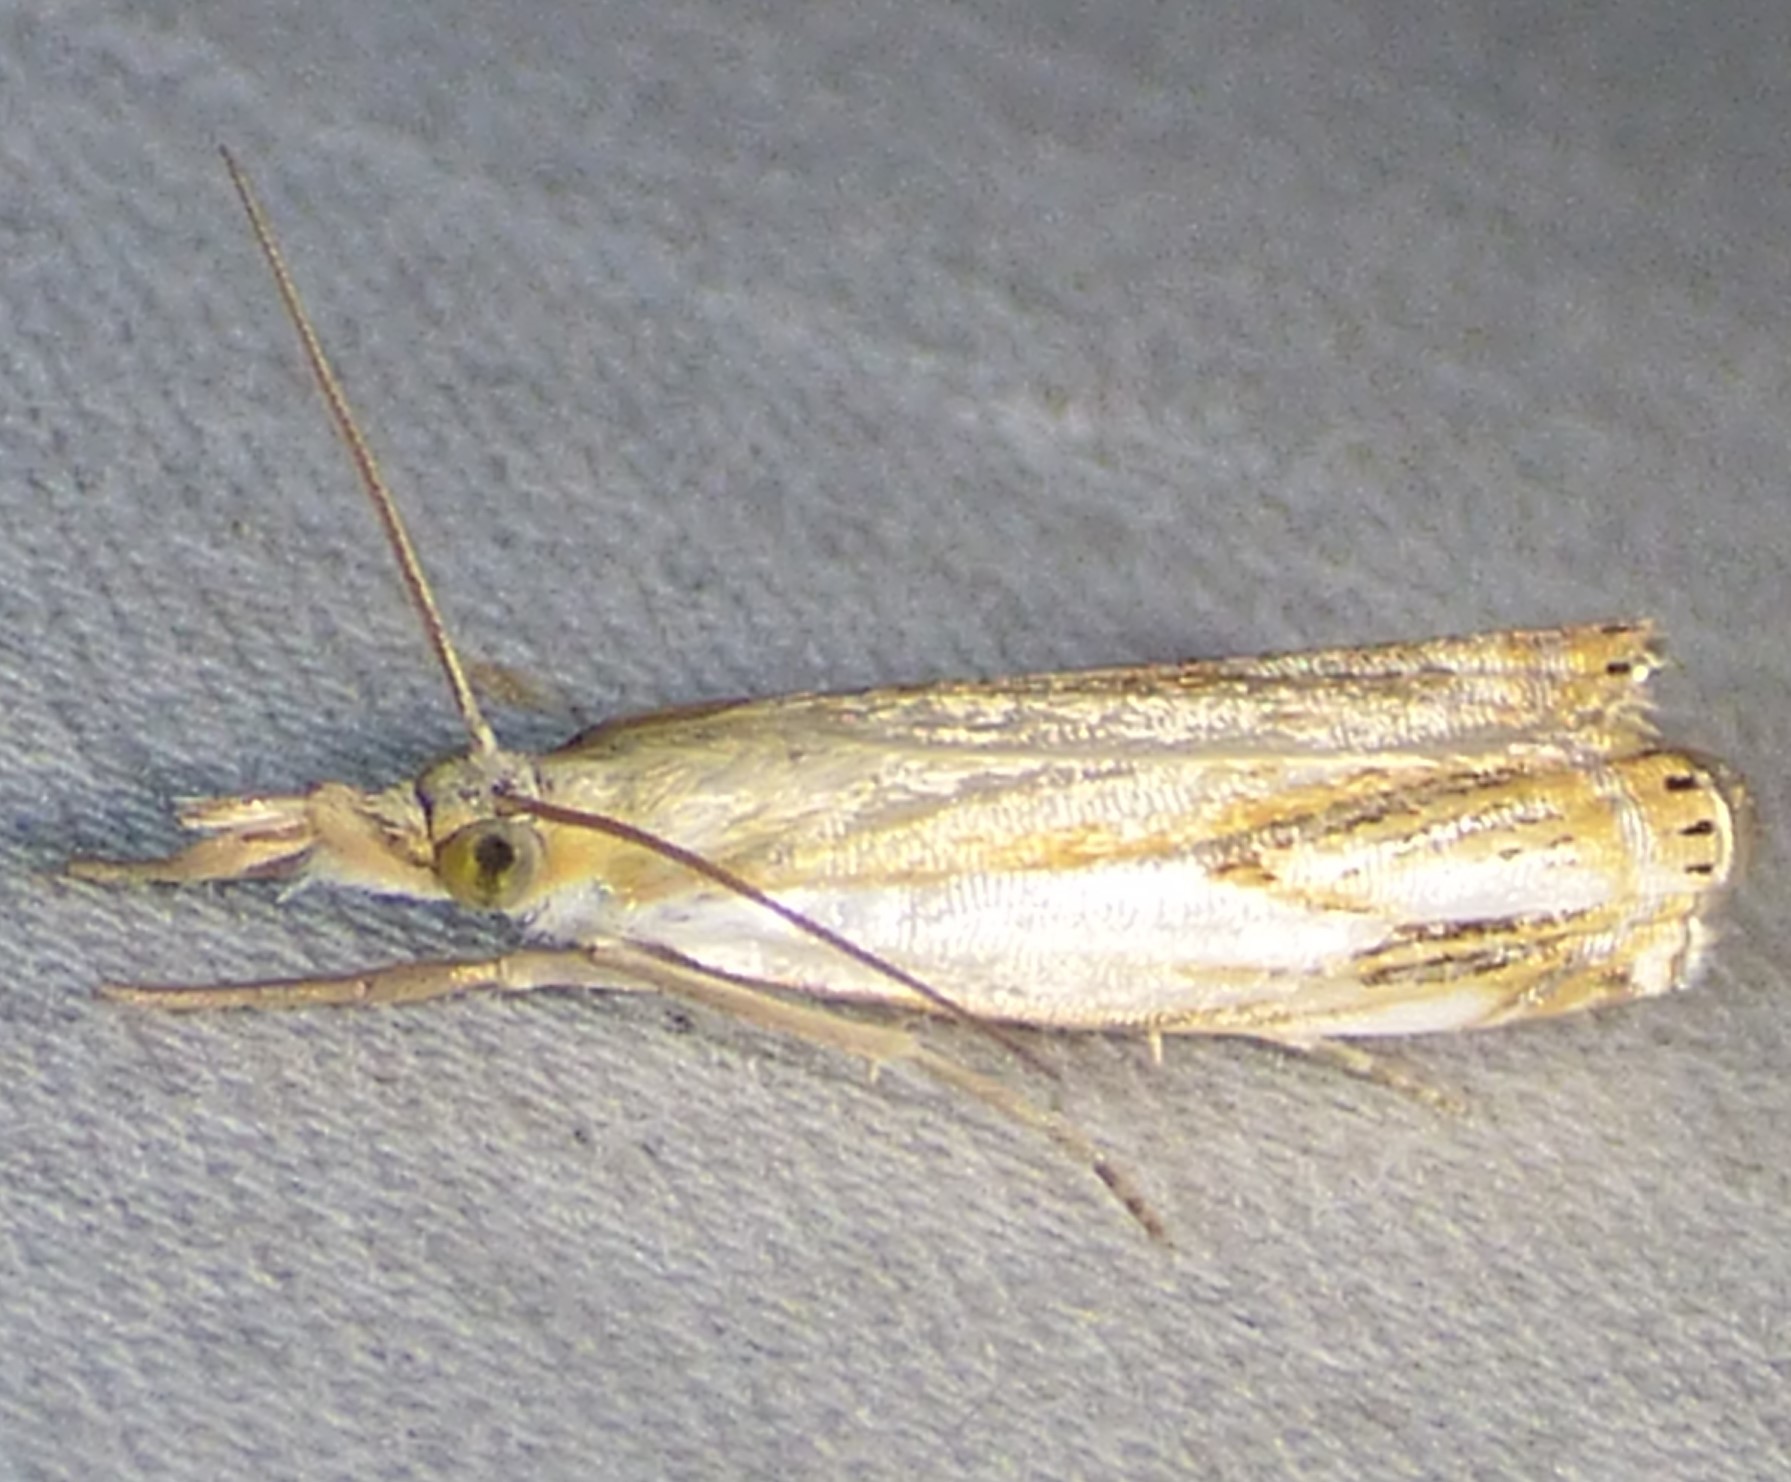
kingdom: Animalia
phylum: Arthropoda
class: Insecta
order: Lepidoptera
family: Crambidae
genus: Crambus
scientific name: Crambus agitatellus
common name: Double-banded grass-veneer
